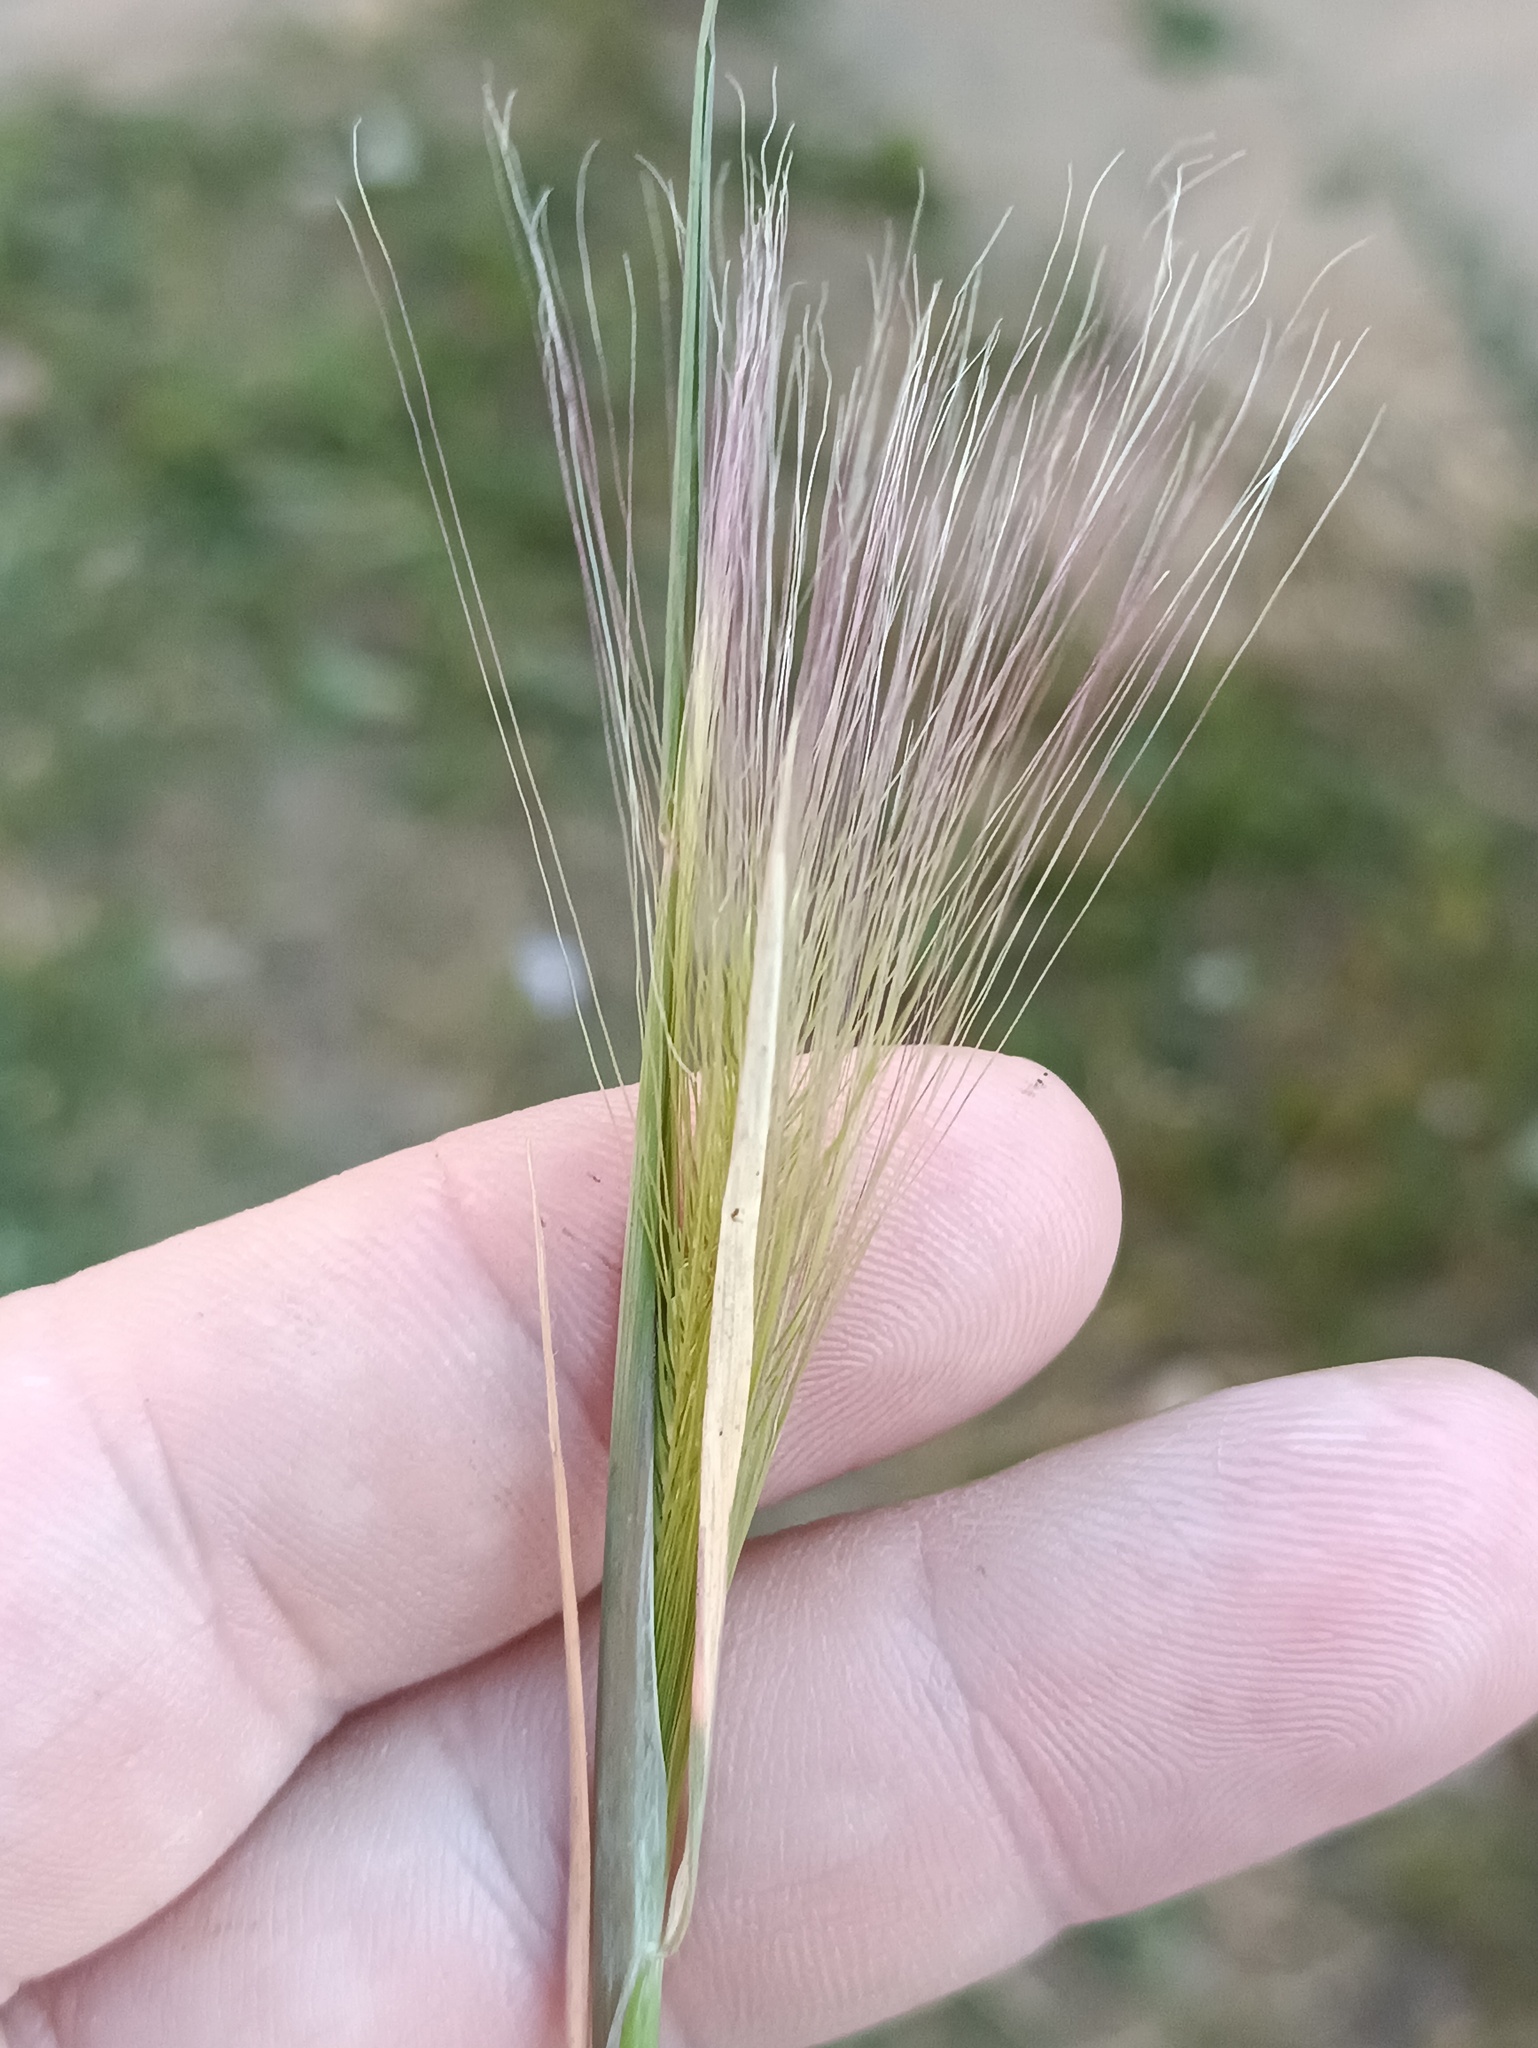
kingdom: Plantae
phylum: Tracheophyta
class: Liliopsida
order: Poales
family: Poaceae
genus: Hordeum
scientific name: Hordeum jubatum
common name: Foxtail barley
